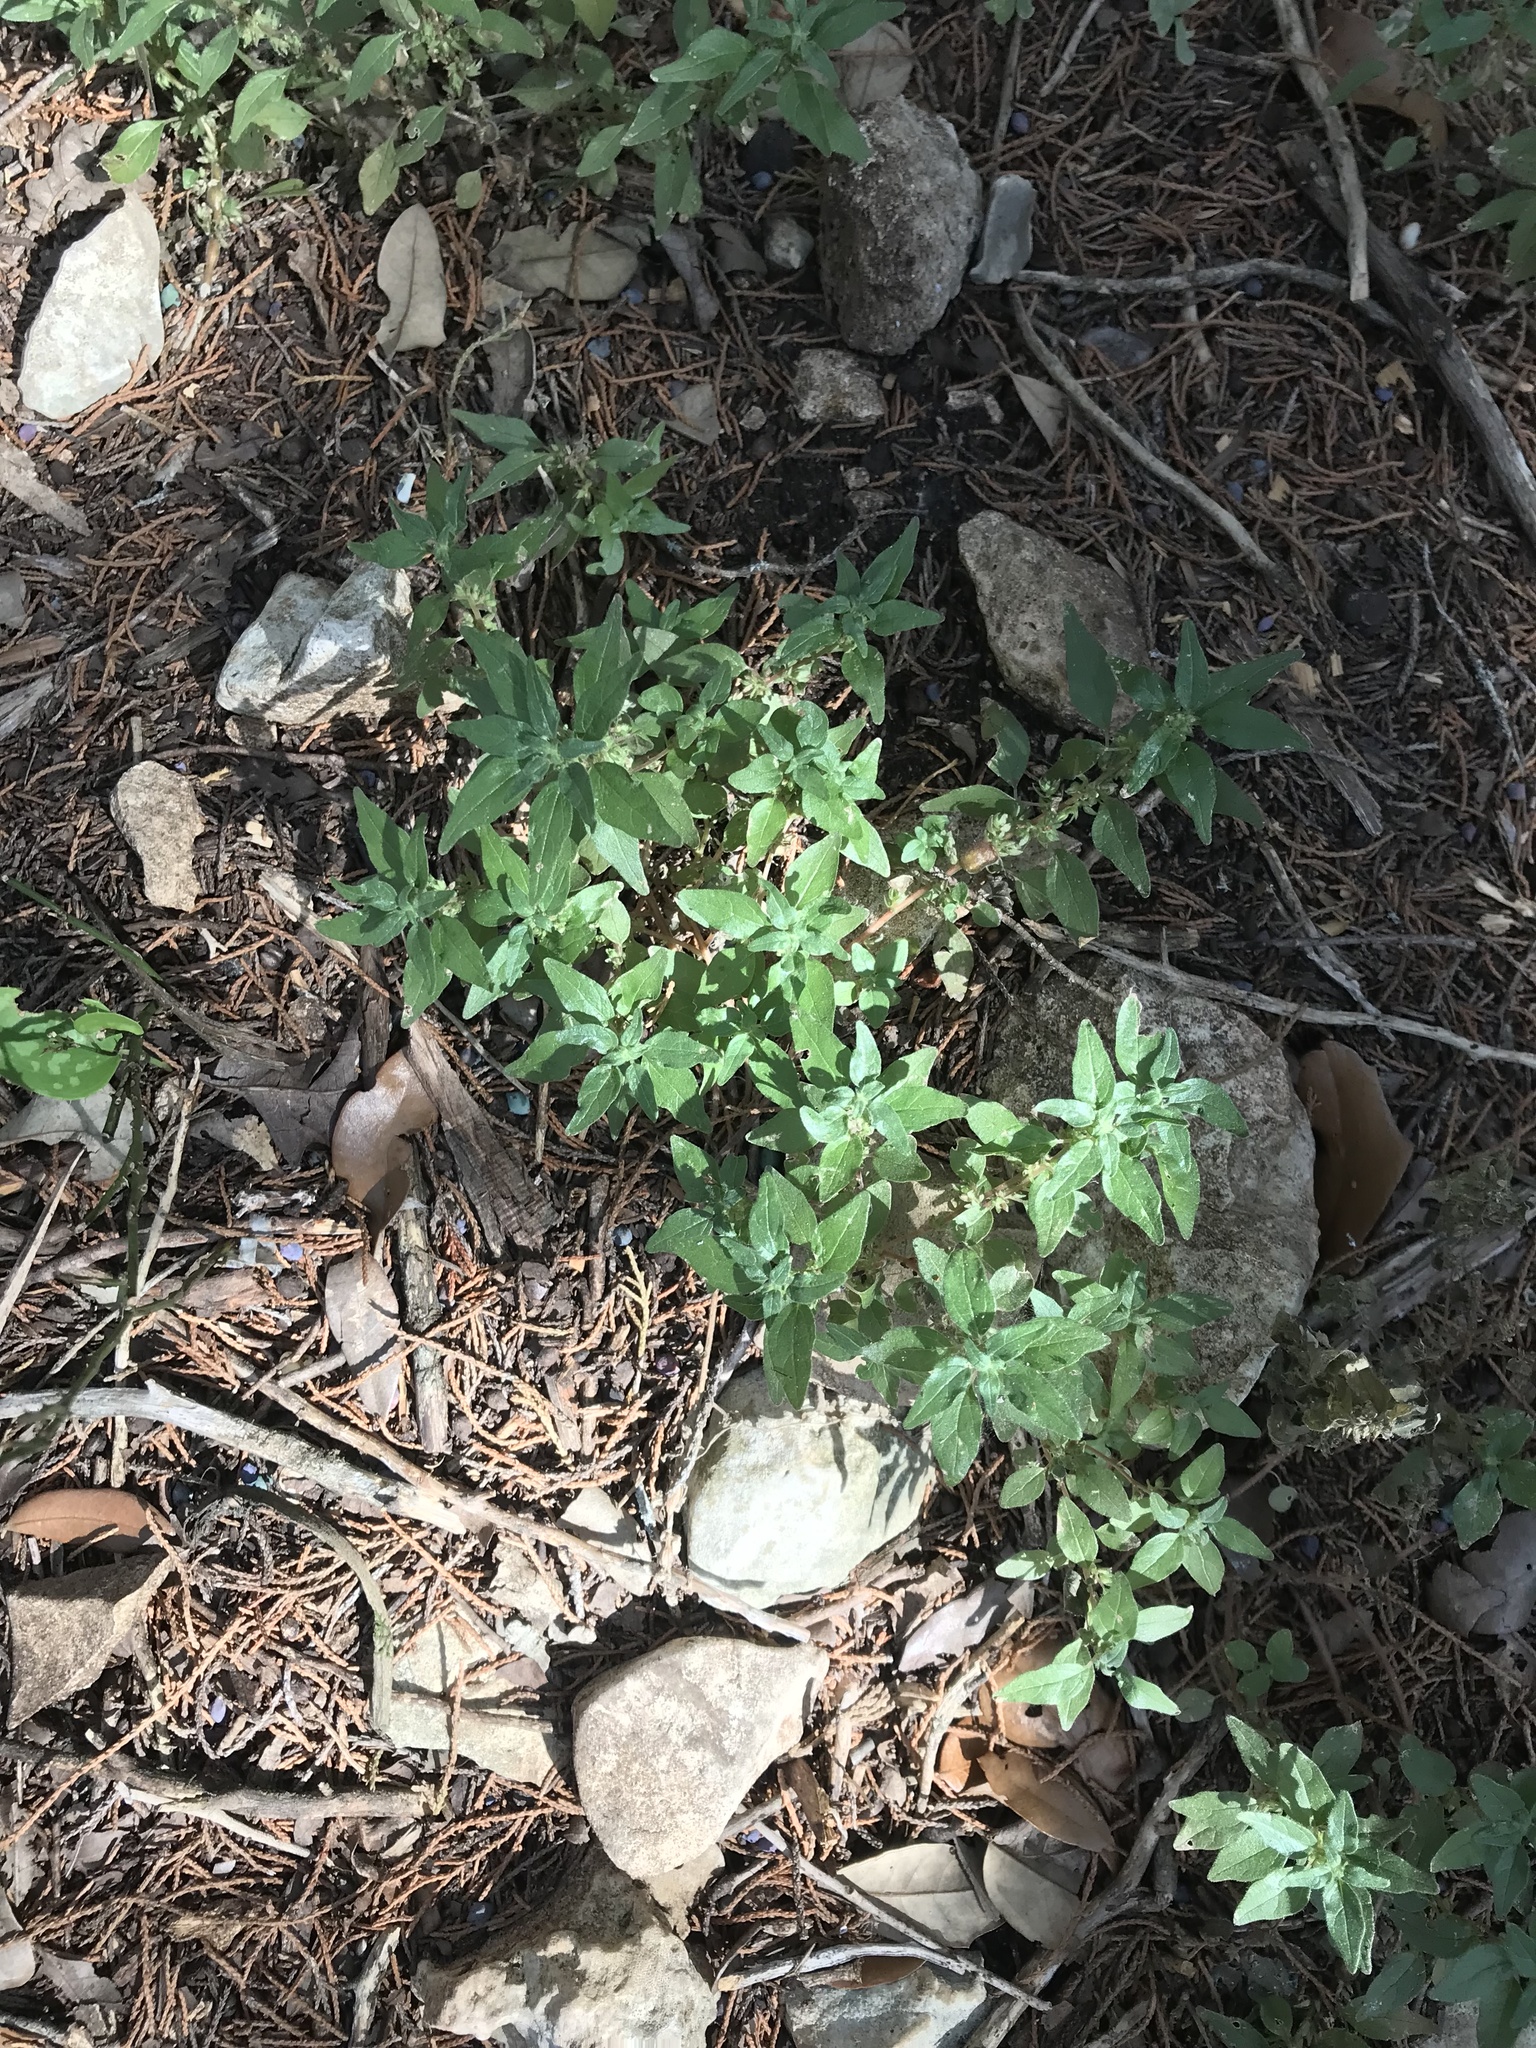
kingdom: Plantae
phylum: Tracheophyta
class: Magnoliopsida
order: Rosales
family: Urticaceae
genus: Parietaria
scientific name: Parietaria pensylvanica
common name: Pennsylvania pellitory
